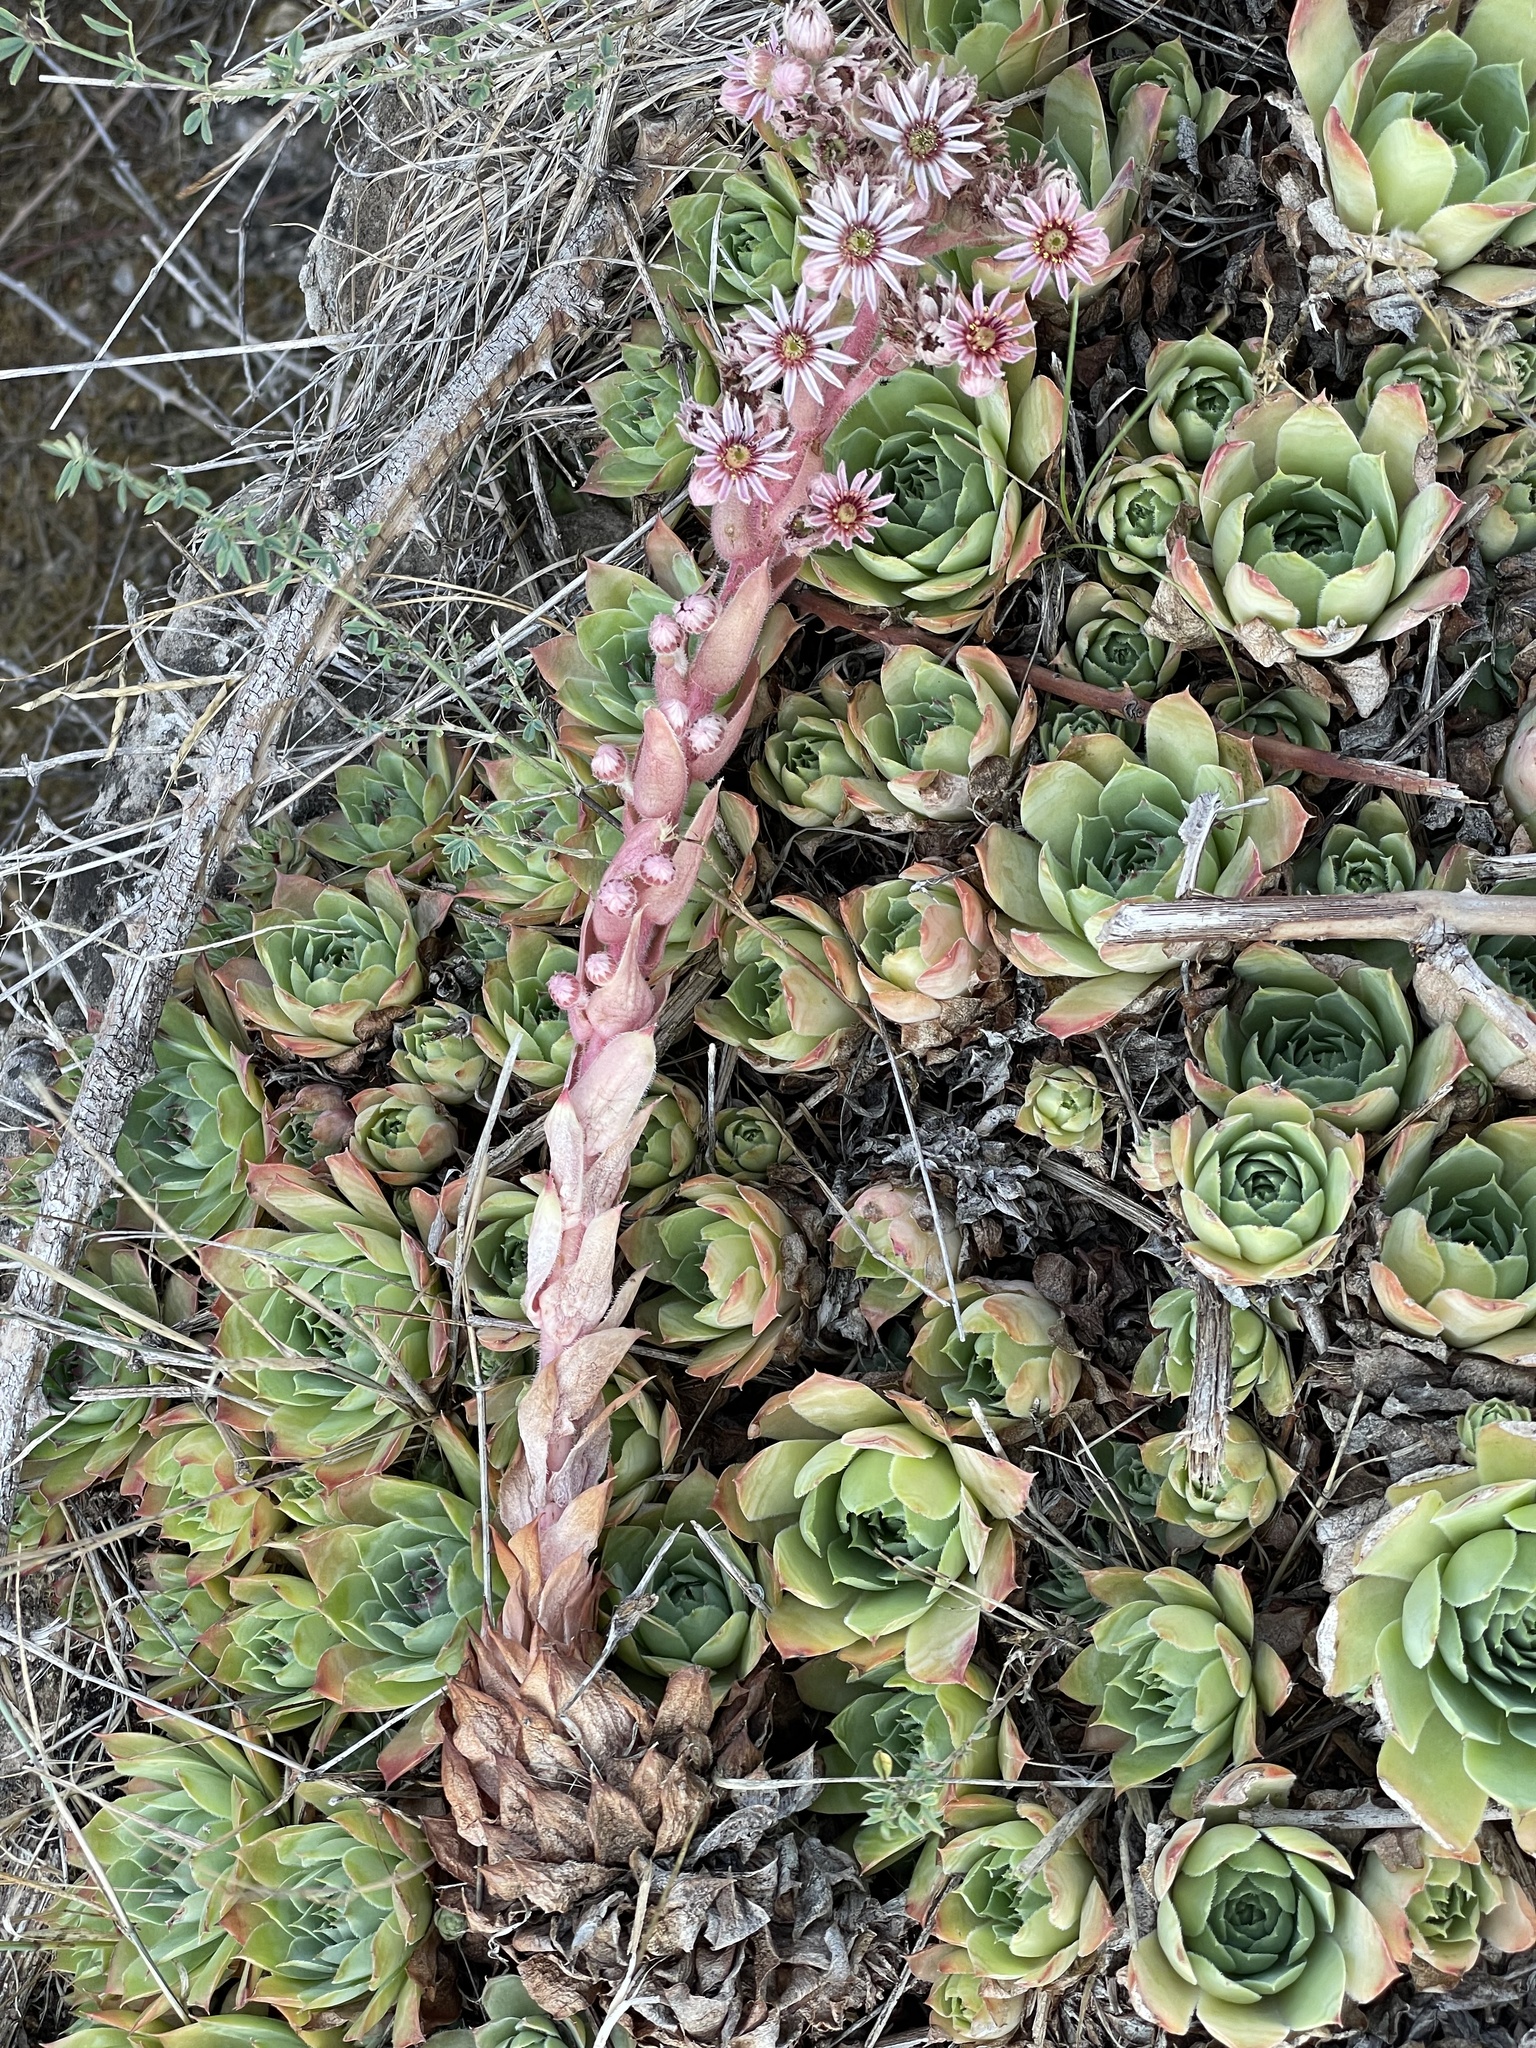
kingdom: Plantae
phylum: Tracheophyta
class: Magnoliopsida
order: Saxifragales
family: Crassulaceae
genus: Sempervivum
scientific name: Sempervivum tectorum
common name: House-leek
